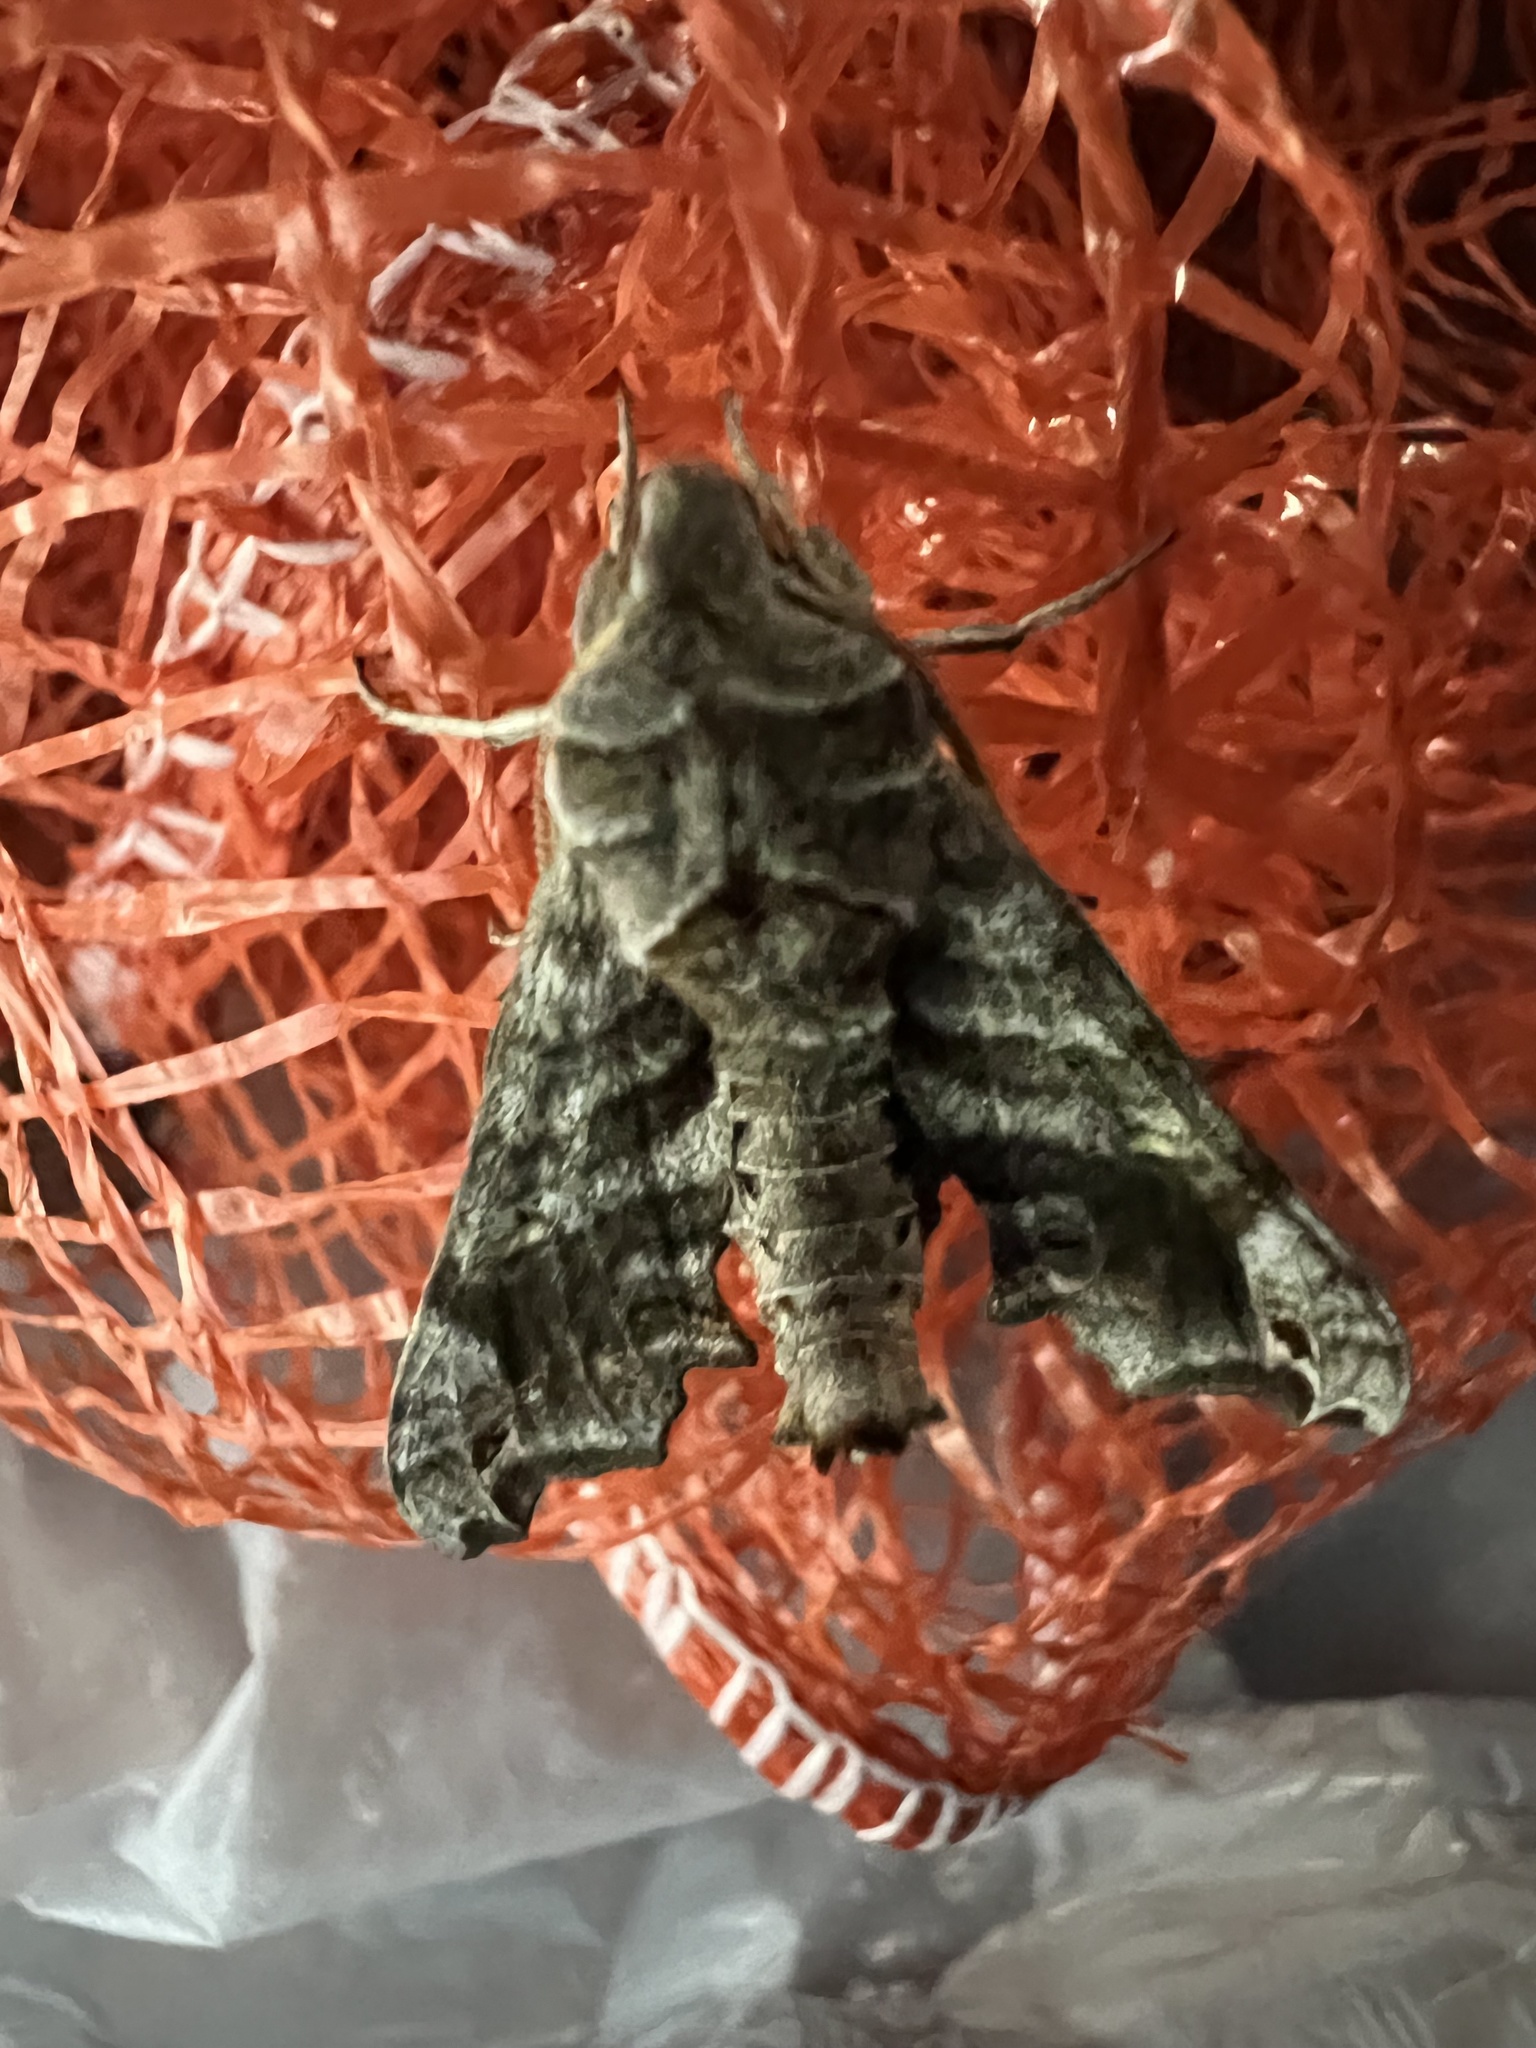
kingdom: Animalia
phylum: Arthropoda
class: Insecta
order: Lepidoptera
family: Sphingidae
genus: Deidamia
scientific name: Deidamia inscriptum
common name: Lettered sphinx
